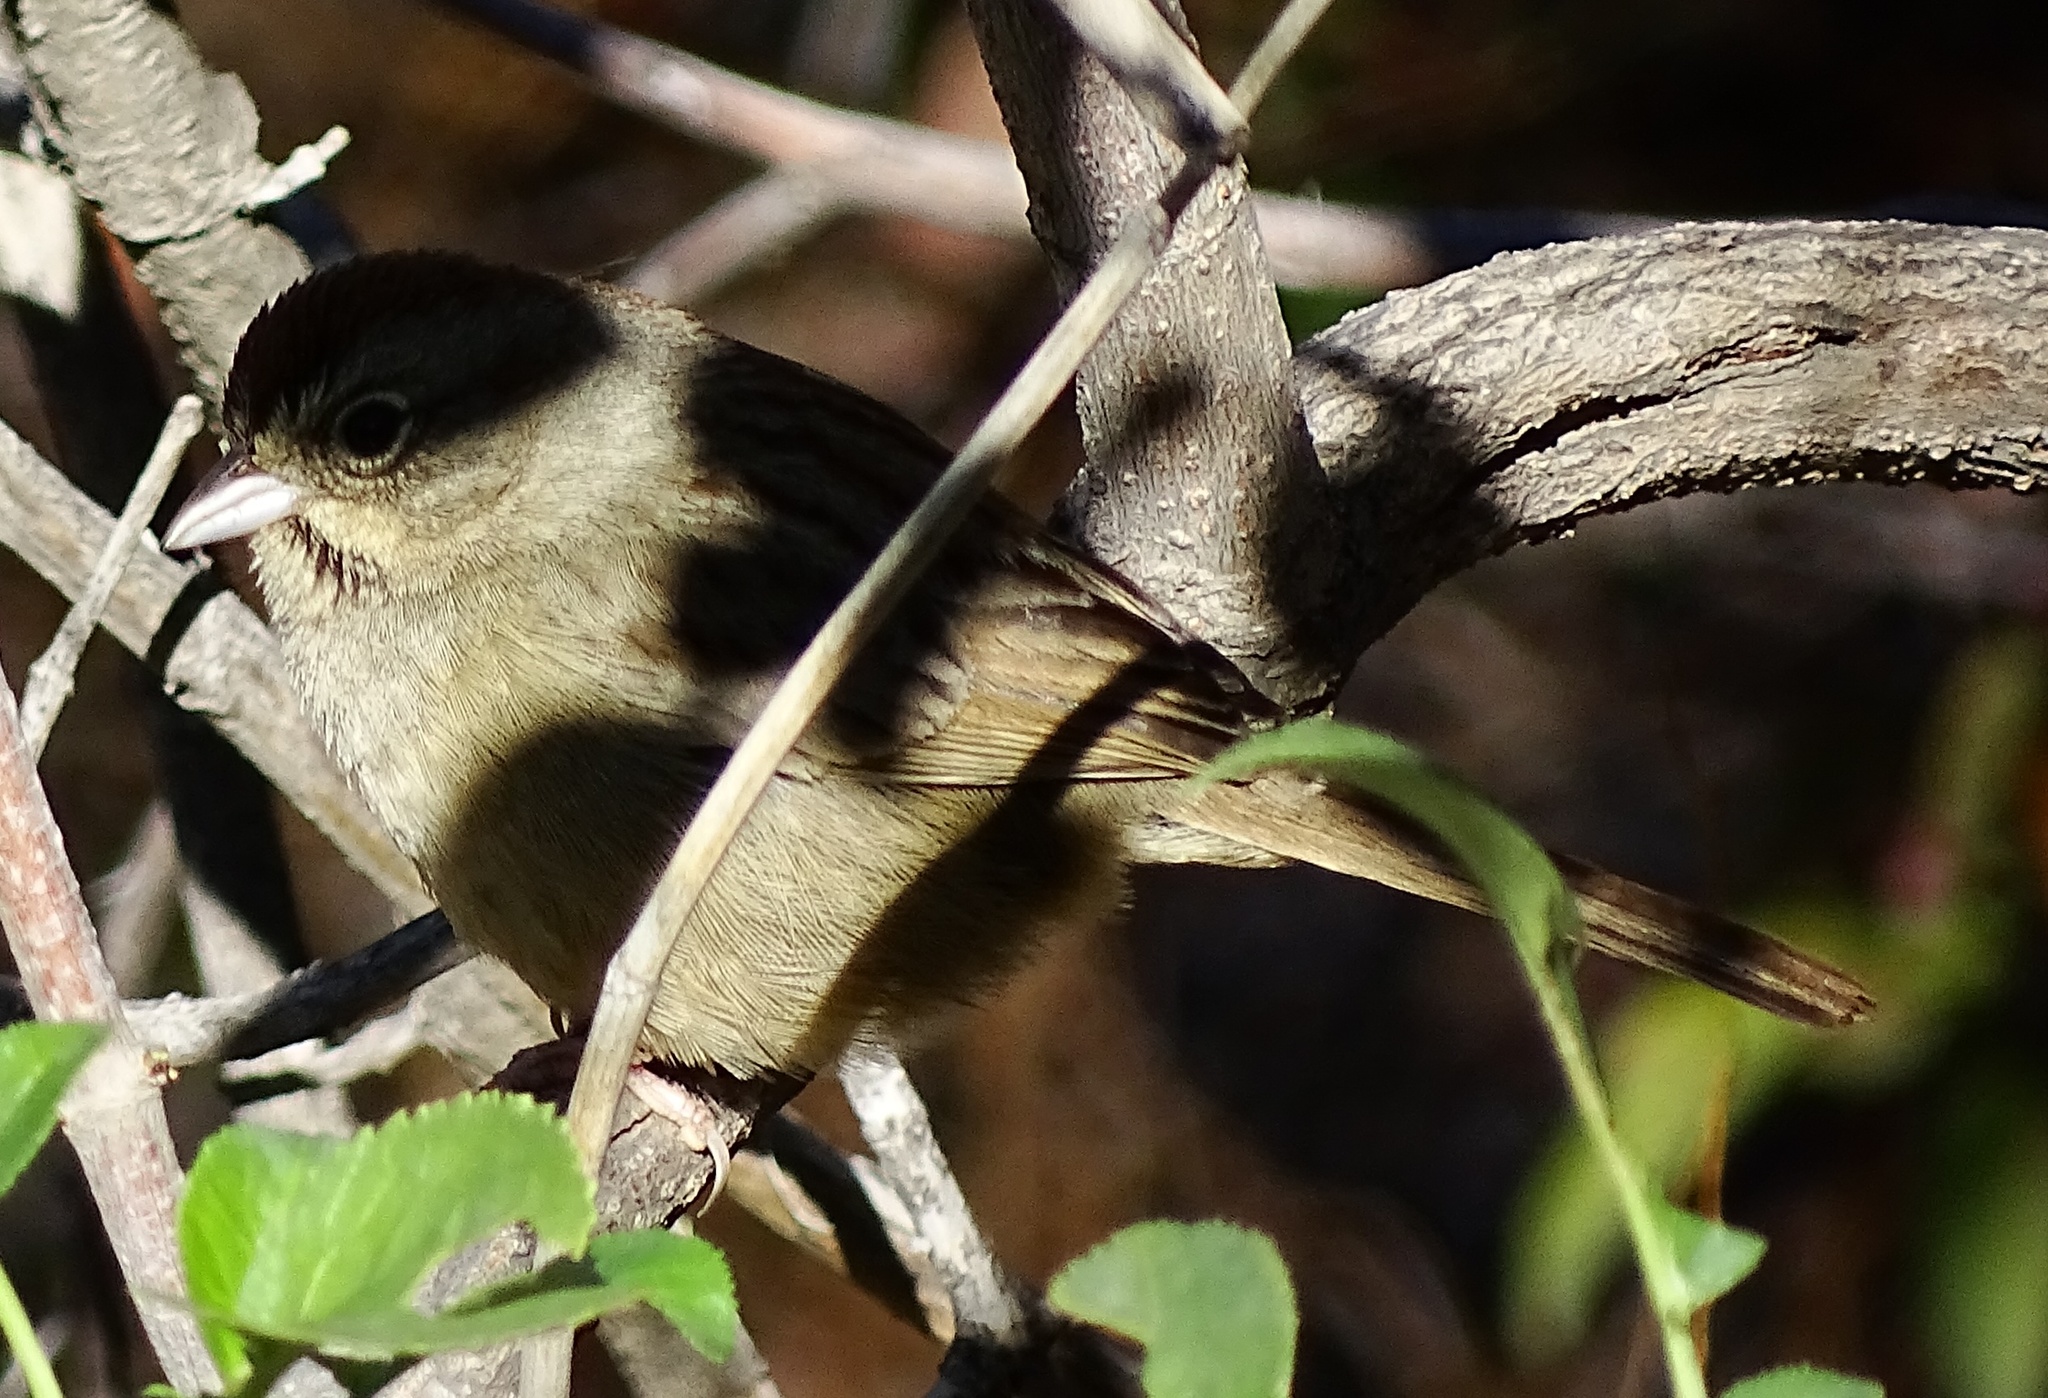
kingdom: Animalia
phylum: Chordata
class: Aves
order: Passeriformes
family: Passerellidae
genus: Aimophila
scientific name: Aimophila ruficeps
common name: Rufous-crowned sparrow
